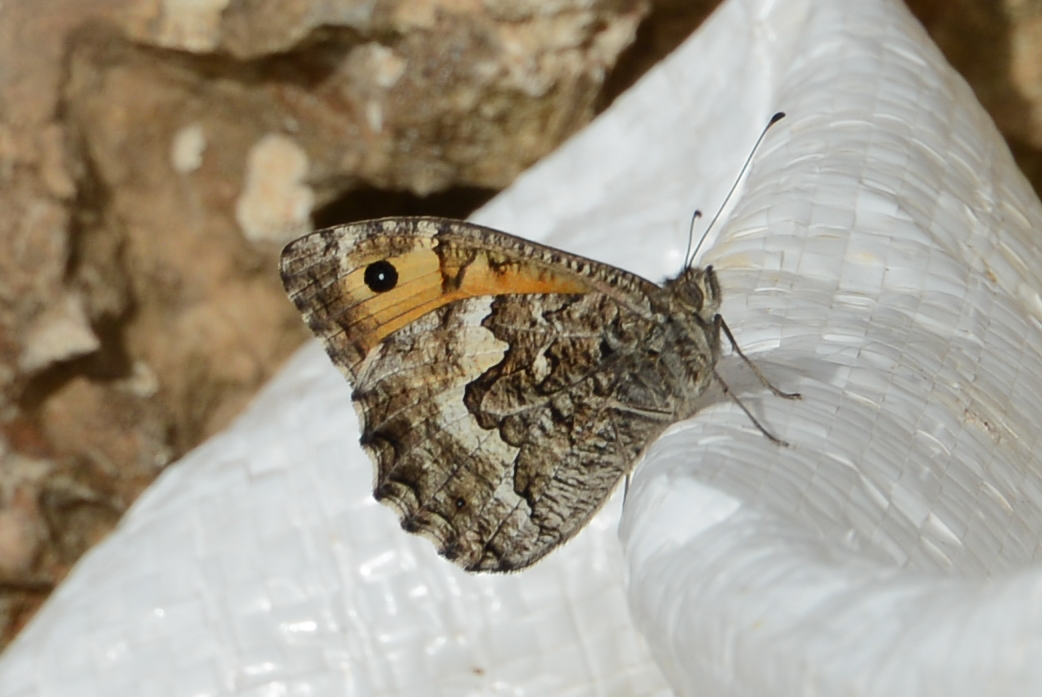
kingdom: Animalia
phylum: Arthropoda
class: Insecta
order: Lepidoptera
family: Nymphalidae
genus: Hipparchia
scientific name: Hipparchia cretica
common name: Cretan grayling
